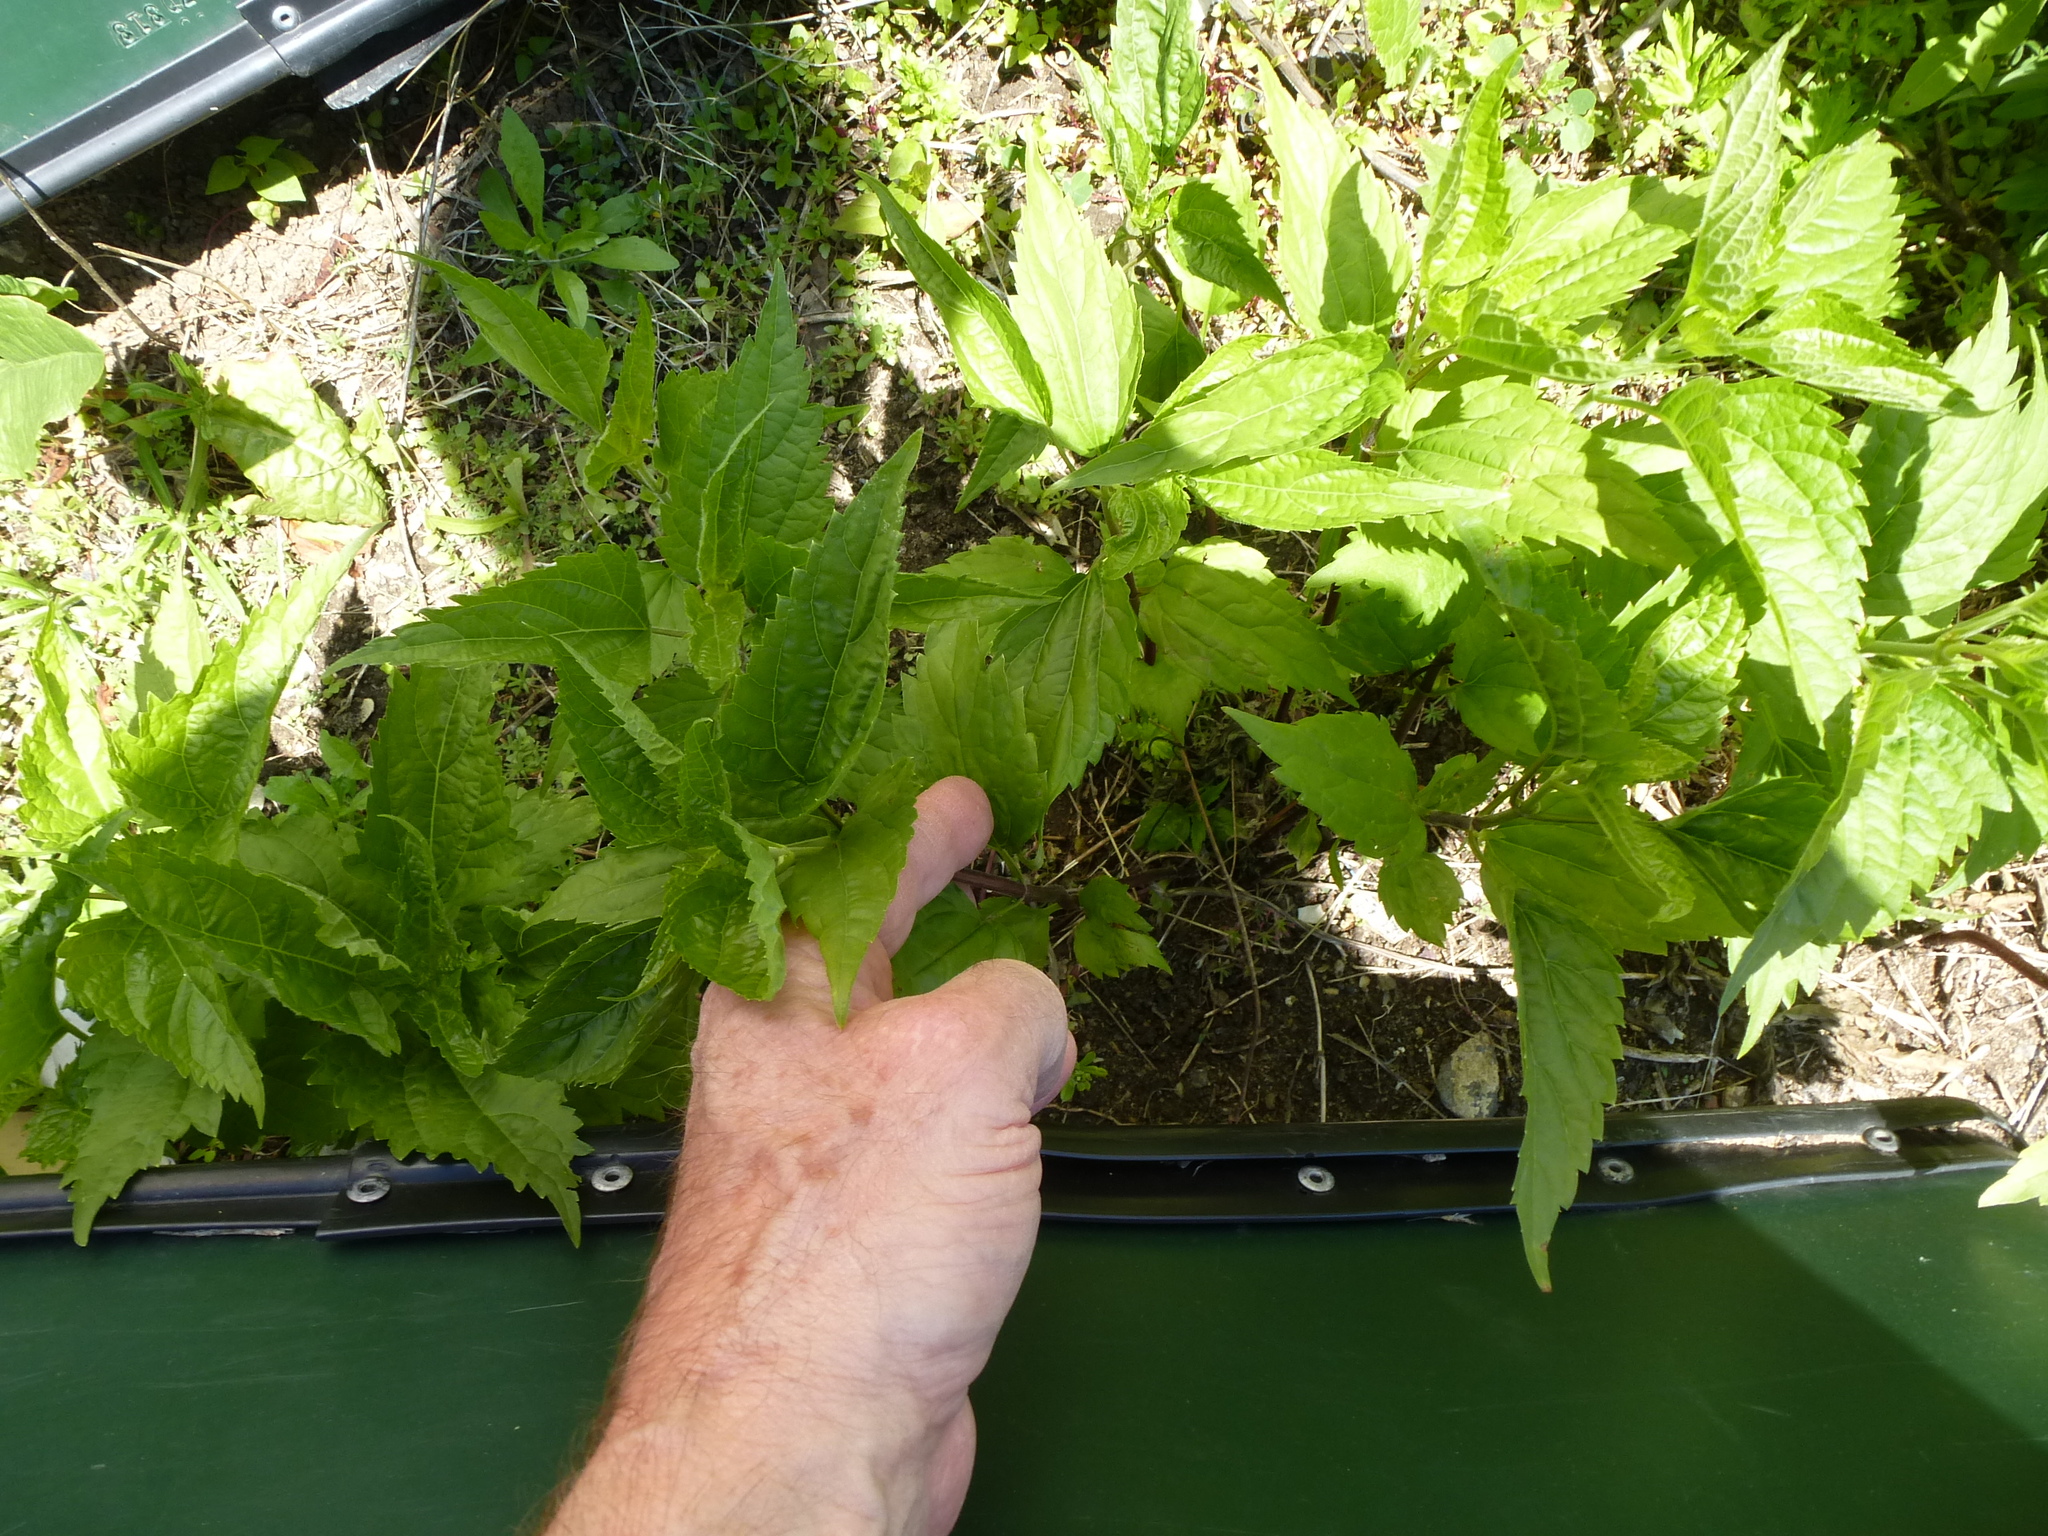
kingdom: Plantae
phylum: Tracheophyta
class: Magnoliopsida
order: Asterales
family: Asteraceae
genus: Ageratina
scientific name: Ageratina altissima
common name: White snakeroot
